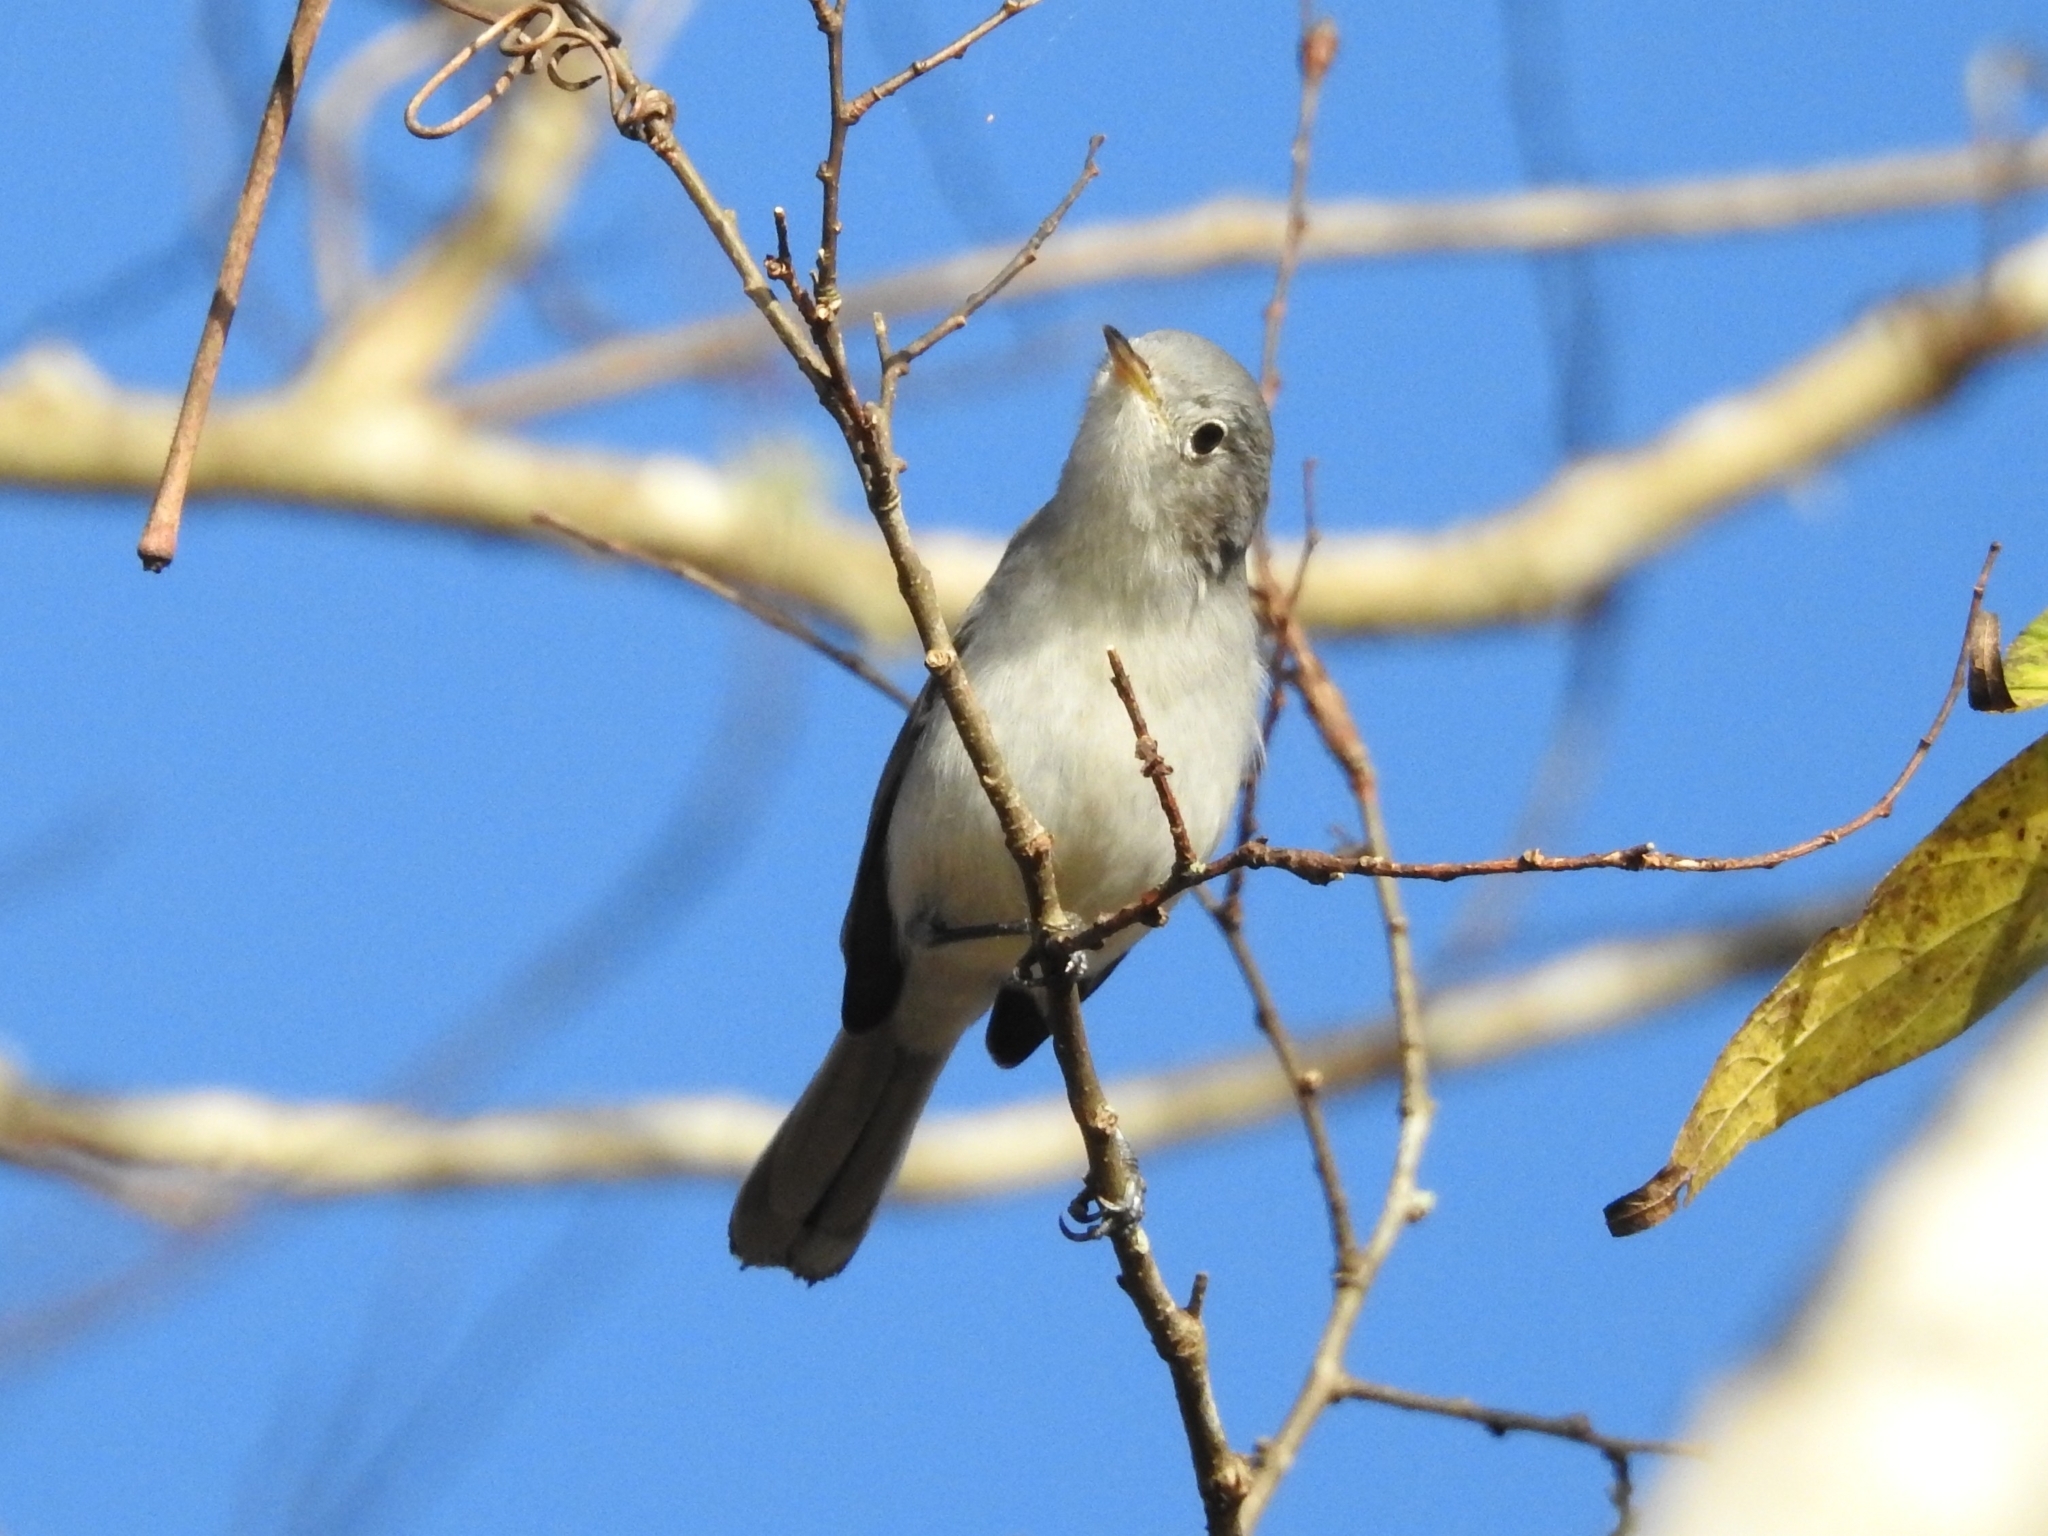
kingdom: Animalia
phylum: Chordata
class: Aves
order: Passeriformes
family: Polioptilidae
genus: Polioptila
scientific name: Polioptila caerulea
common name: Blue-gray gnatcatcher
